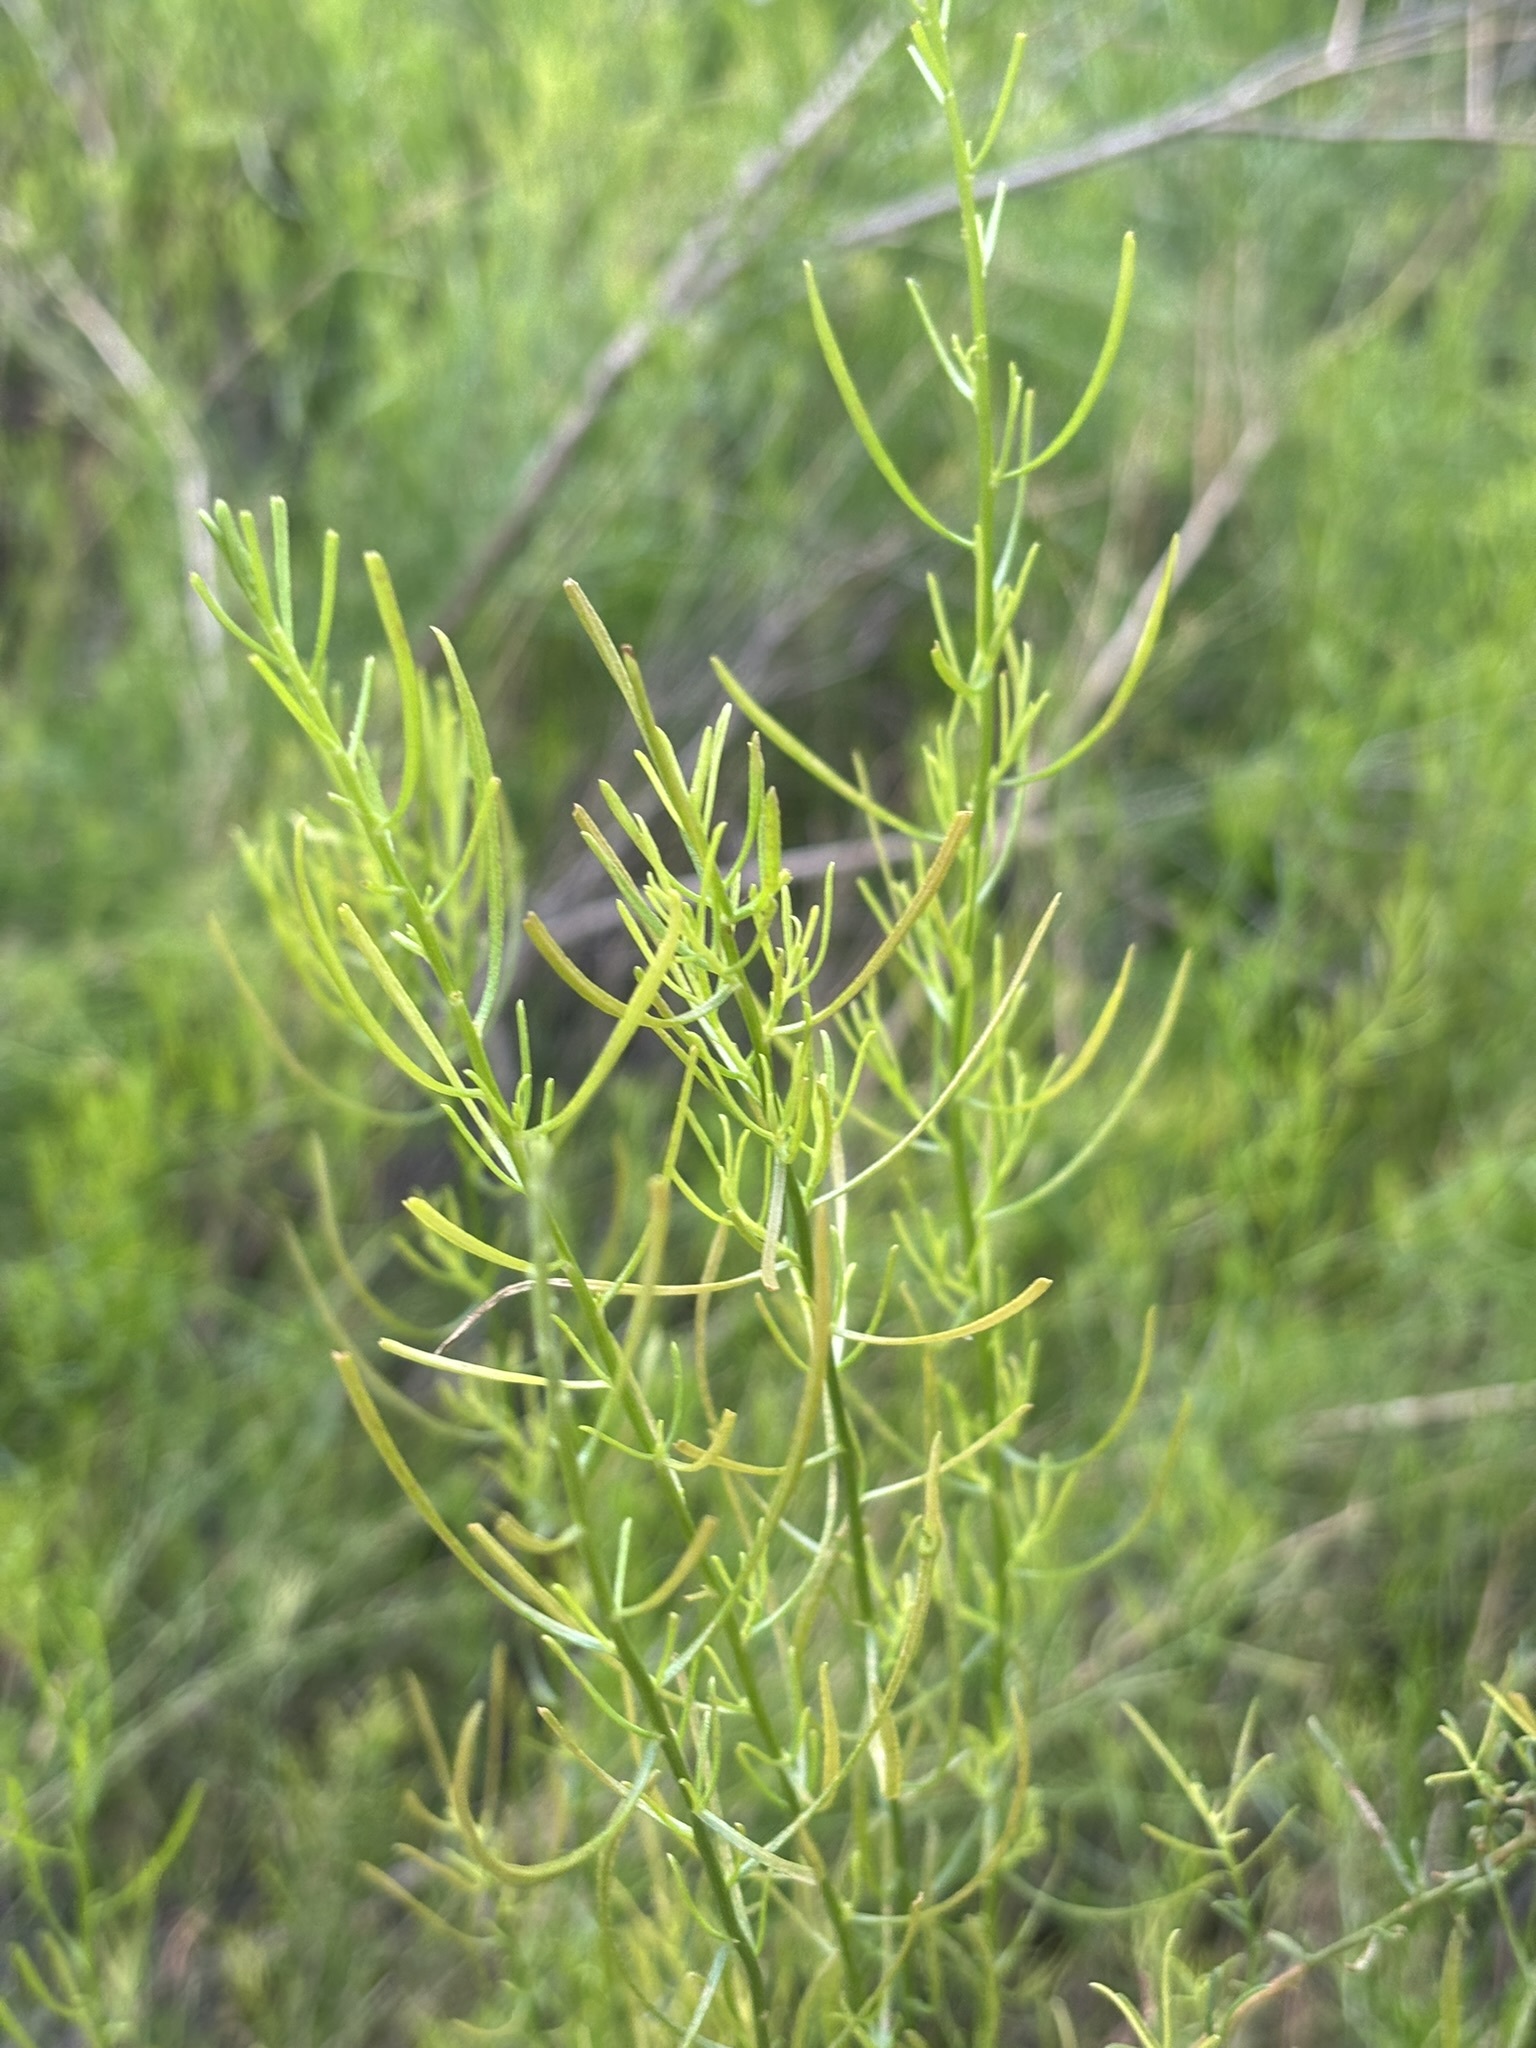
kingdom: Plantae
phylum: Tracheophyta
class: Magnoliopsida
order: Asterales
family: Asteraceae
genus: Gundlachia
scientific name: Gundlachia diffusa
